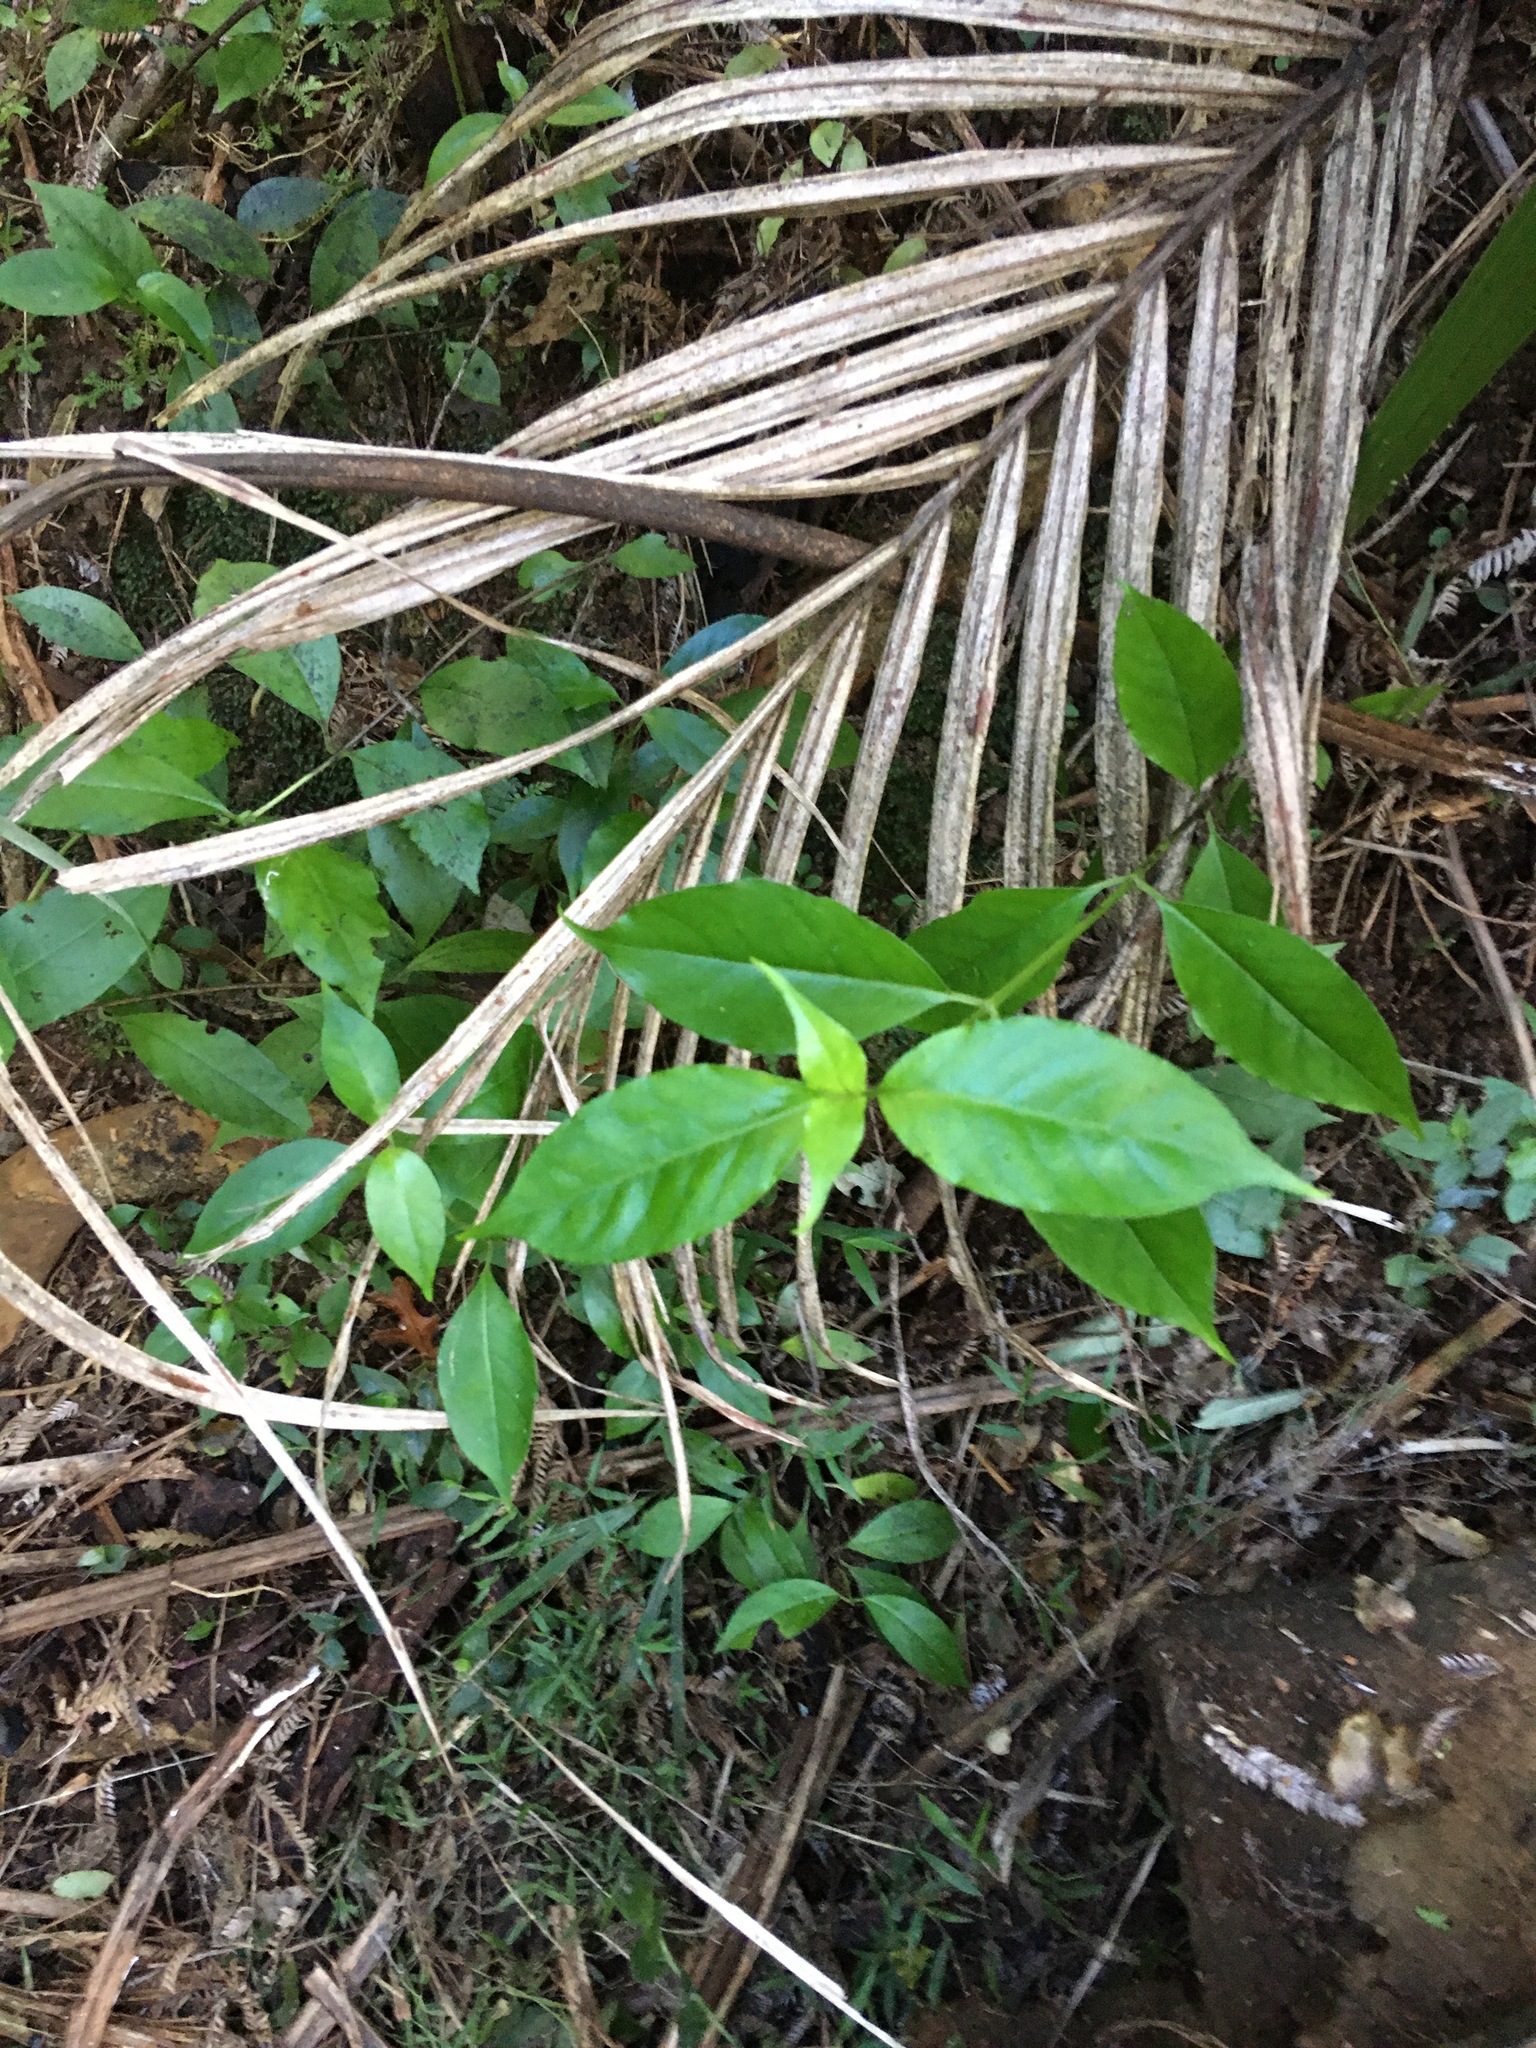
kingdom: Plantae
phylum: Tracheophyta
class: Magnoliopsida
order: Gentianales
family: Loganiaceae
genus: Geniostoma
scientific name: Geniostoma ligustrifolium
